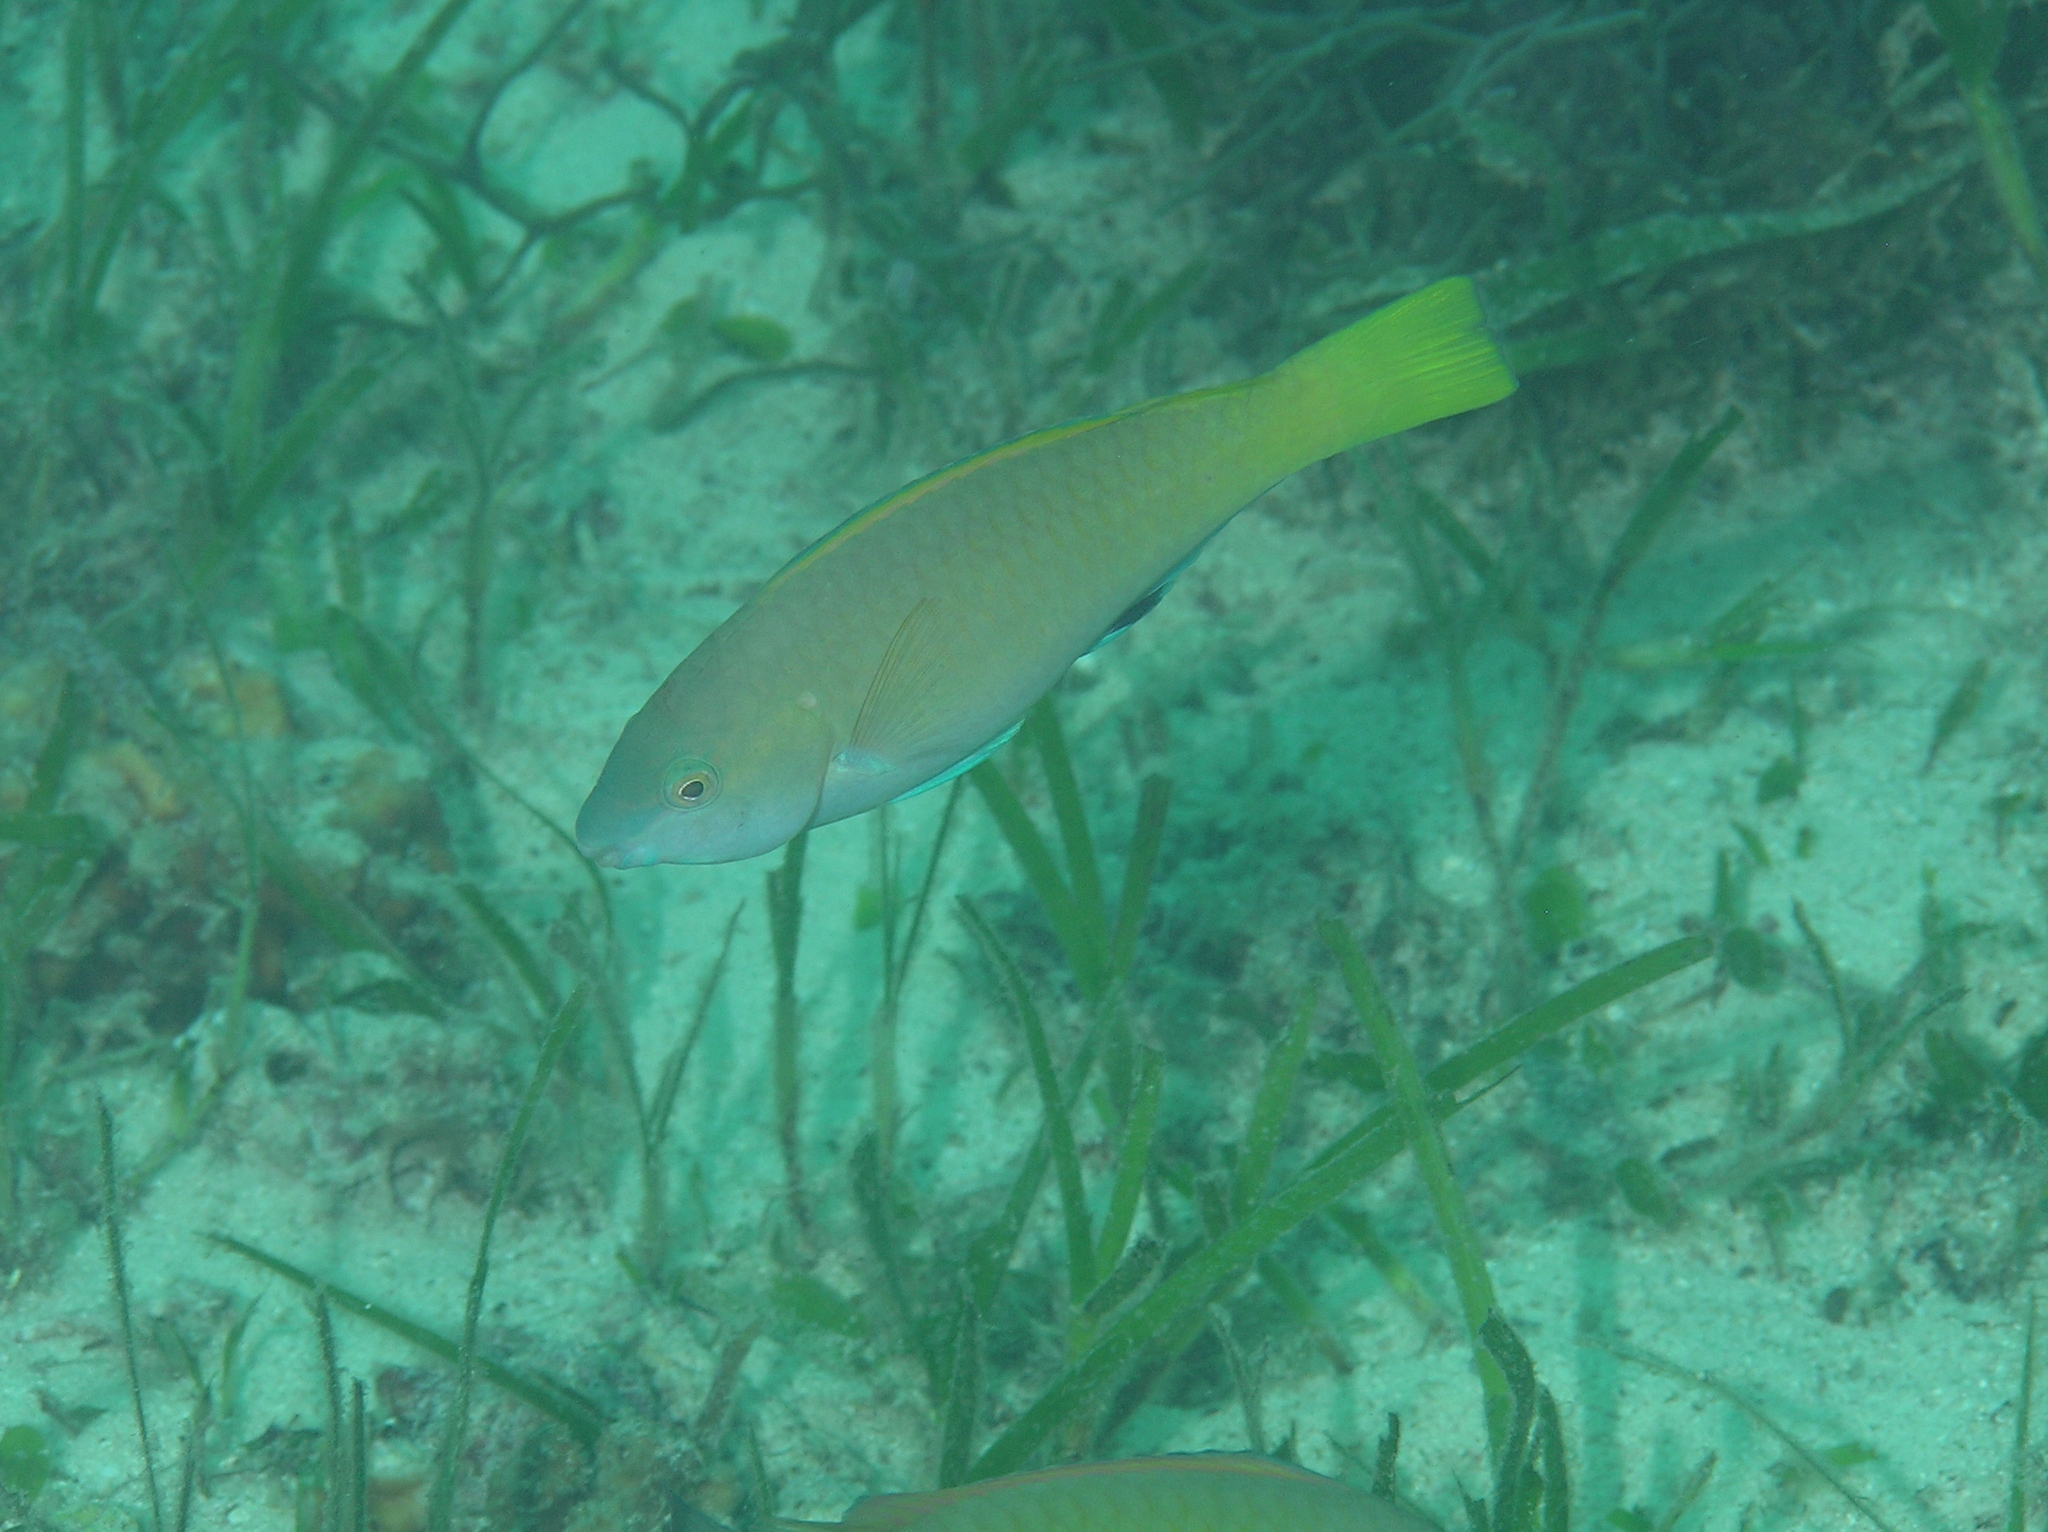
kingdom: Animalia
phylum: Chordata
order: Perciformes
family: Scaridae
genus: Scarus
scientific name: Scarus hypselopterus
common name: Java parrotfish
